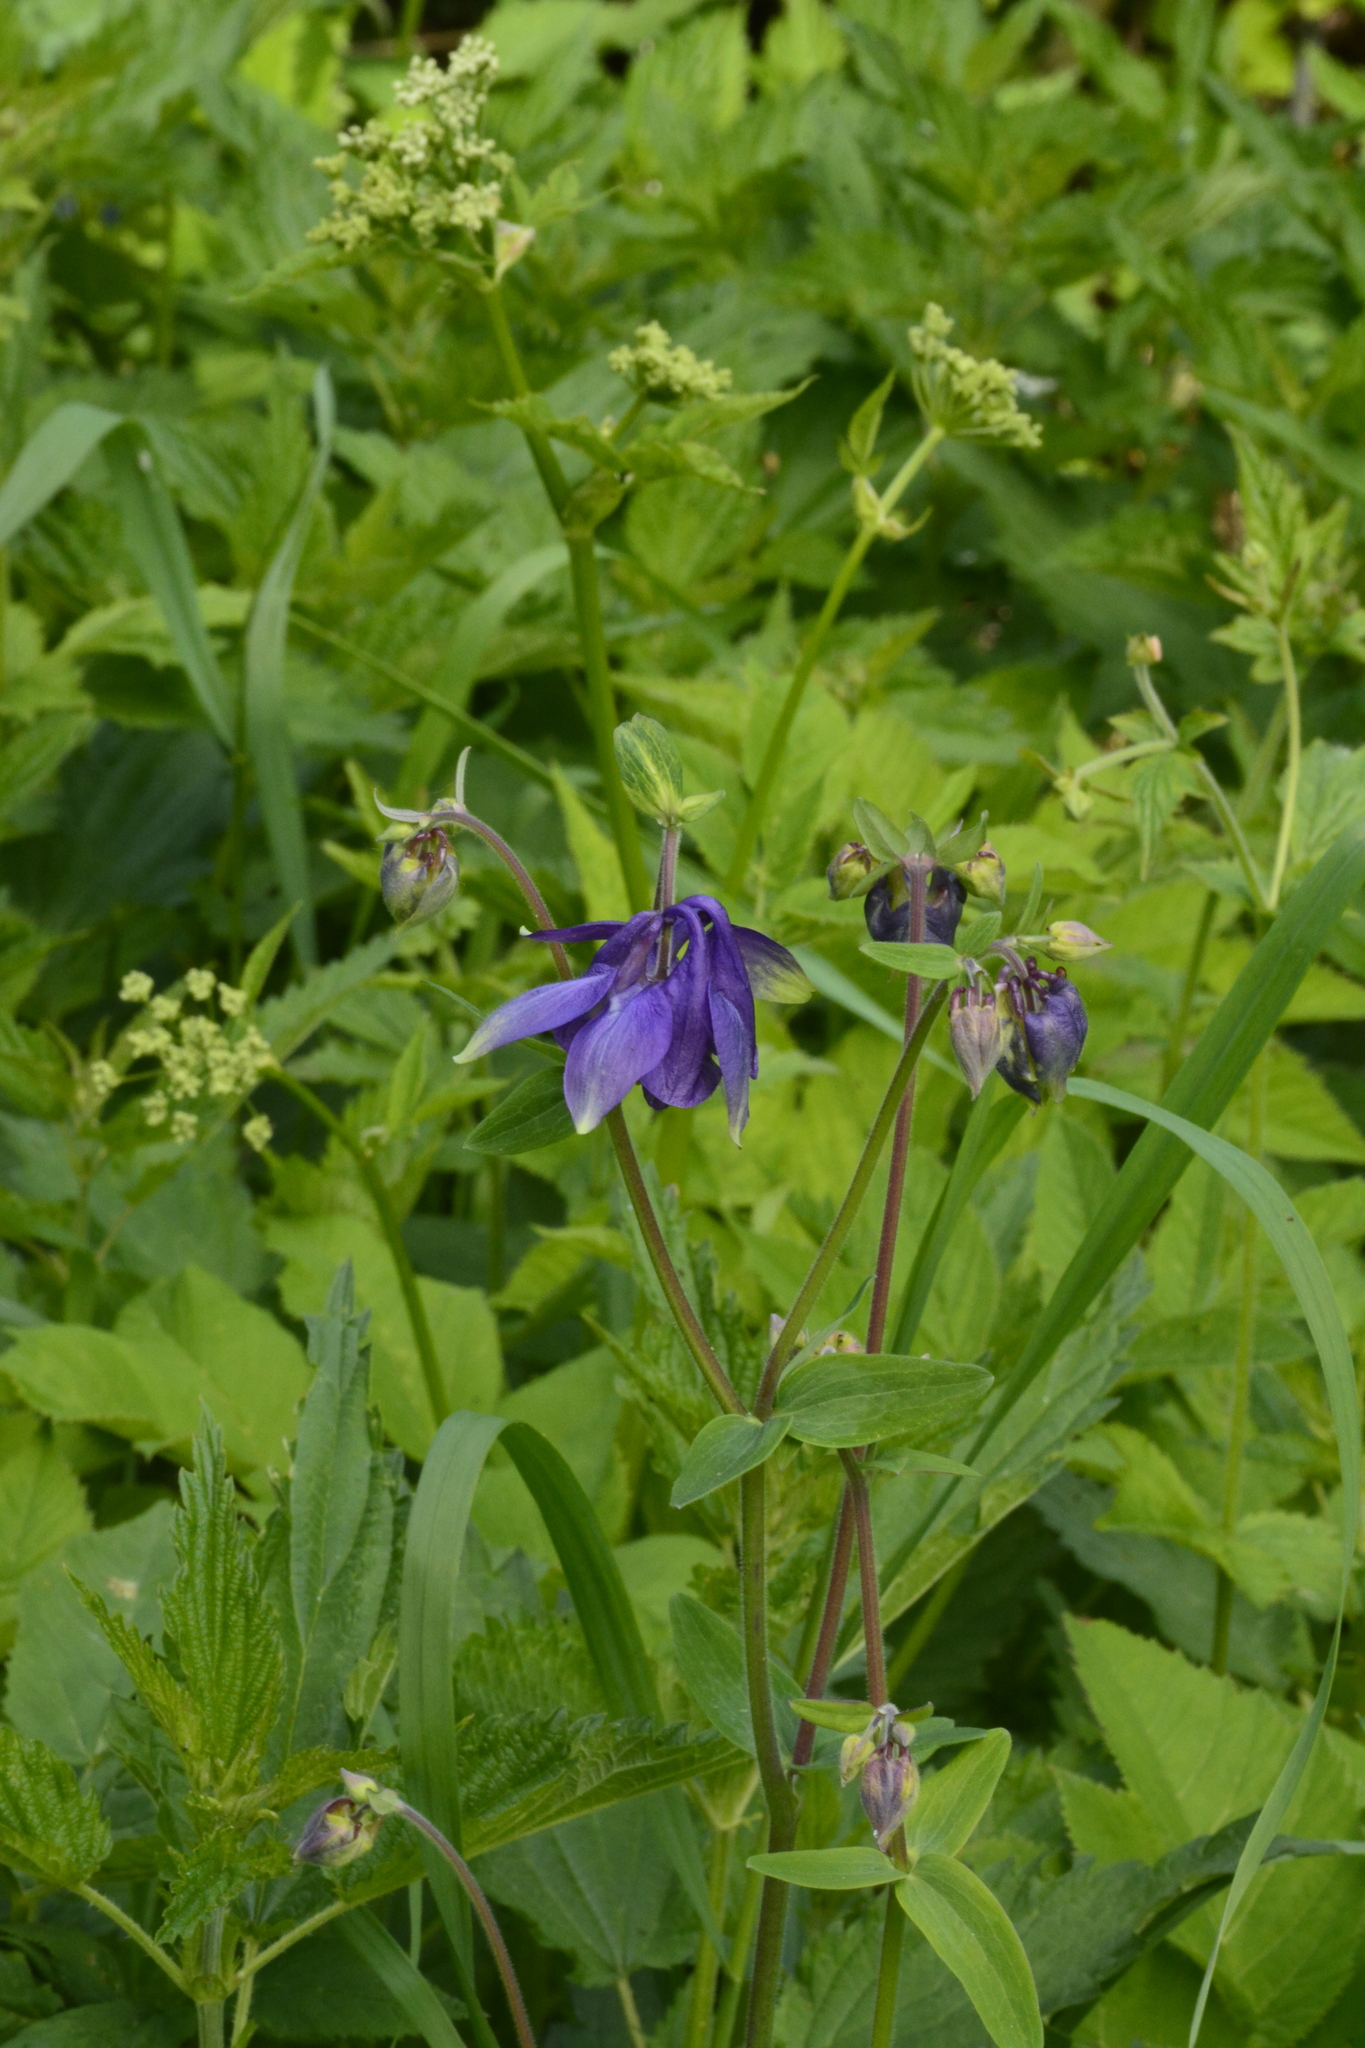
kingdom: Plantae
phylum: Tracheophyta
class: Magnoliopsida
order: Ranunculales
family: Ranunculaceae
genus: Aquilegia
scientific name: Aquilegia vulgaris
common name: Columbine
